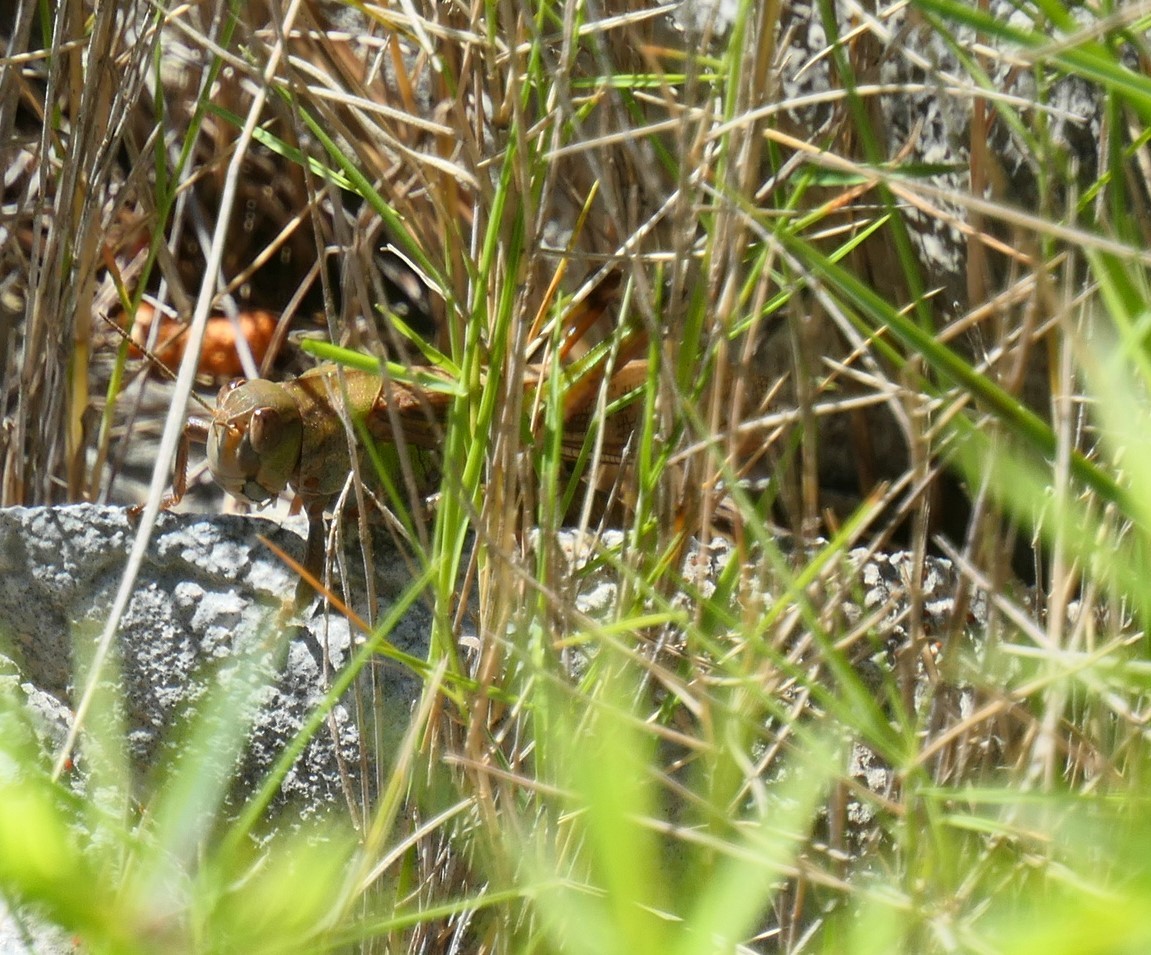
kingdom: Animalia
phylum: Arthropoda
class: Insecta
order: Orthoptera
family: Acrididae
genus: Locusta
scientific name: Locusta migratoria
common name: Migratory locust
